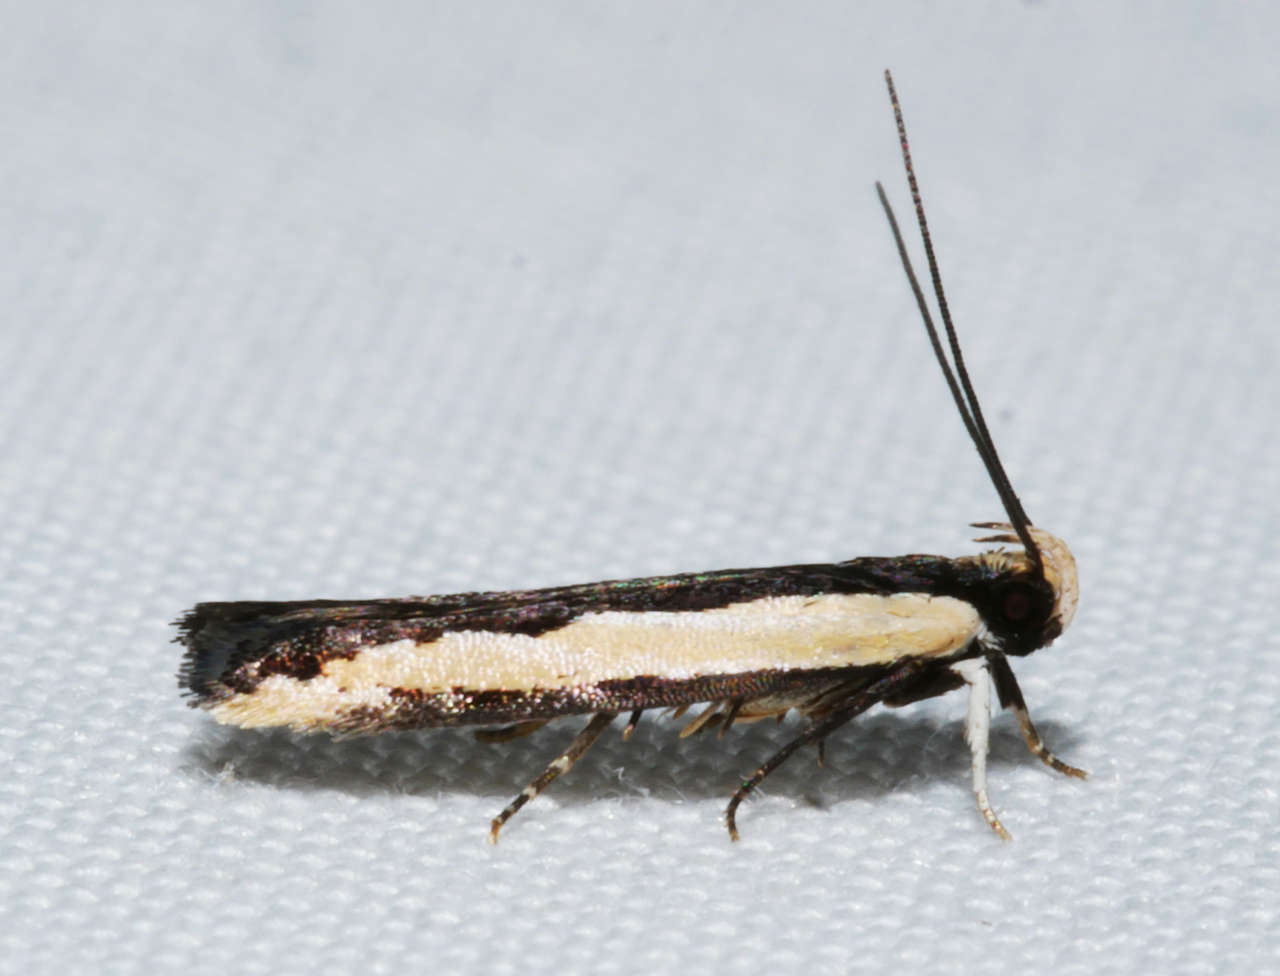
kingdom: Animalia
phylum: Arthropoda
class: Insecta
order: Lepidoptera
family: Gelechiidae
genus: Ardozyga
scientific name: Ardozyga stratifera
